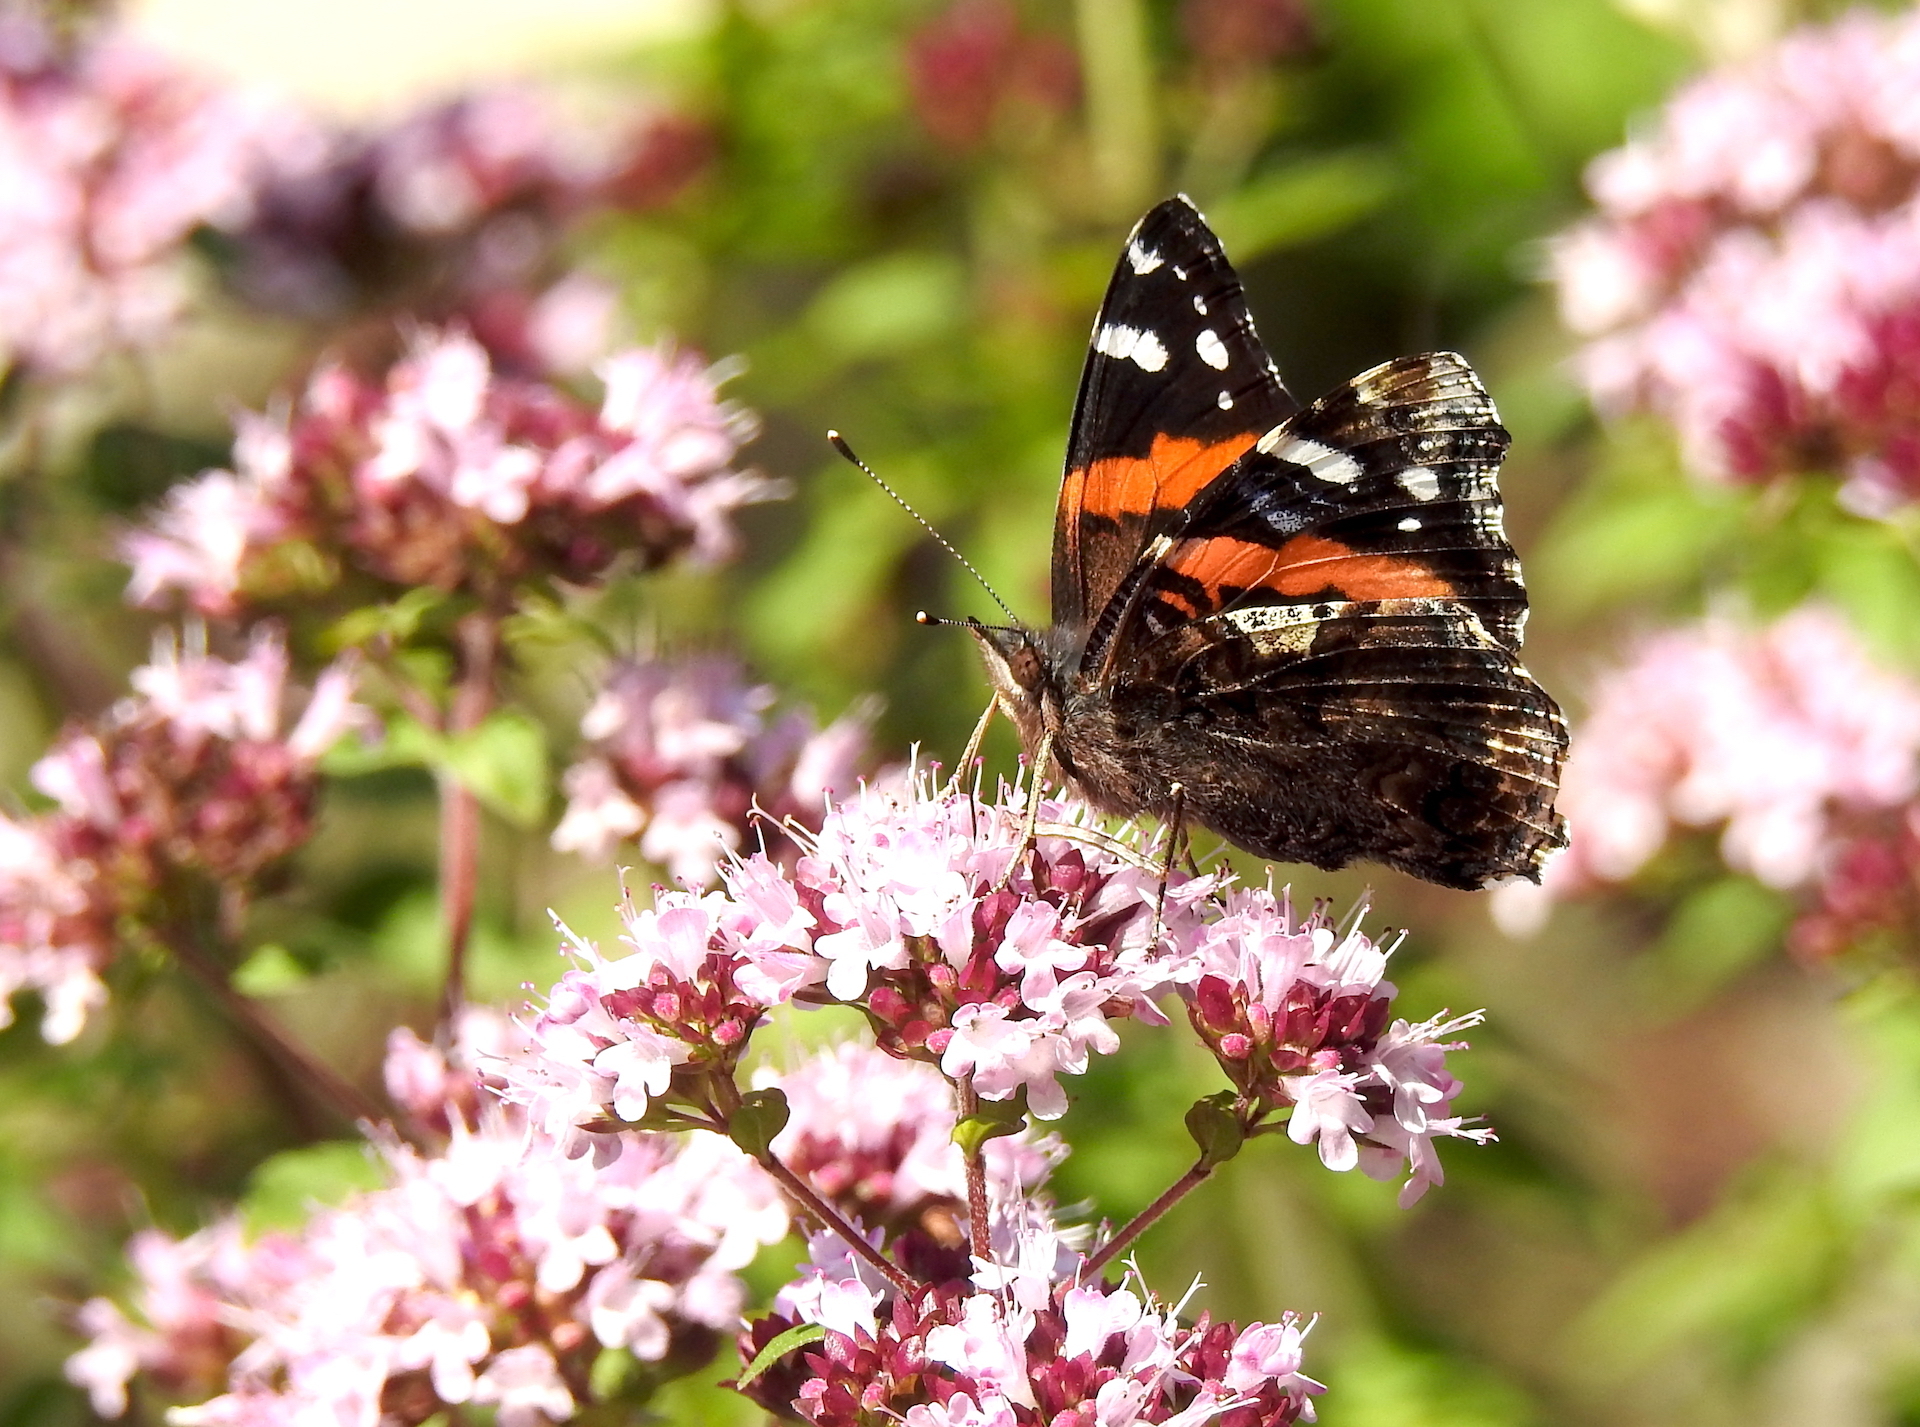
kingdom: Animalia
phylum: Arthropoda
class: Insecta
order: Lepidoptera
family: Nymphalidae
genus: Vanessa
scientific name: Vanessa atalanta
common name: Red admiral
